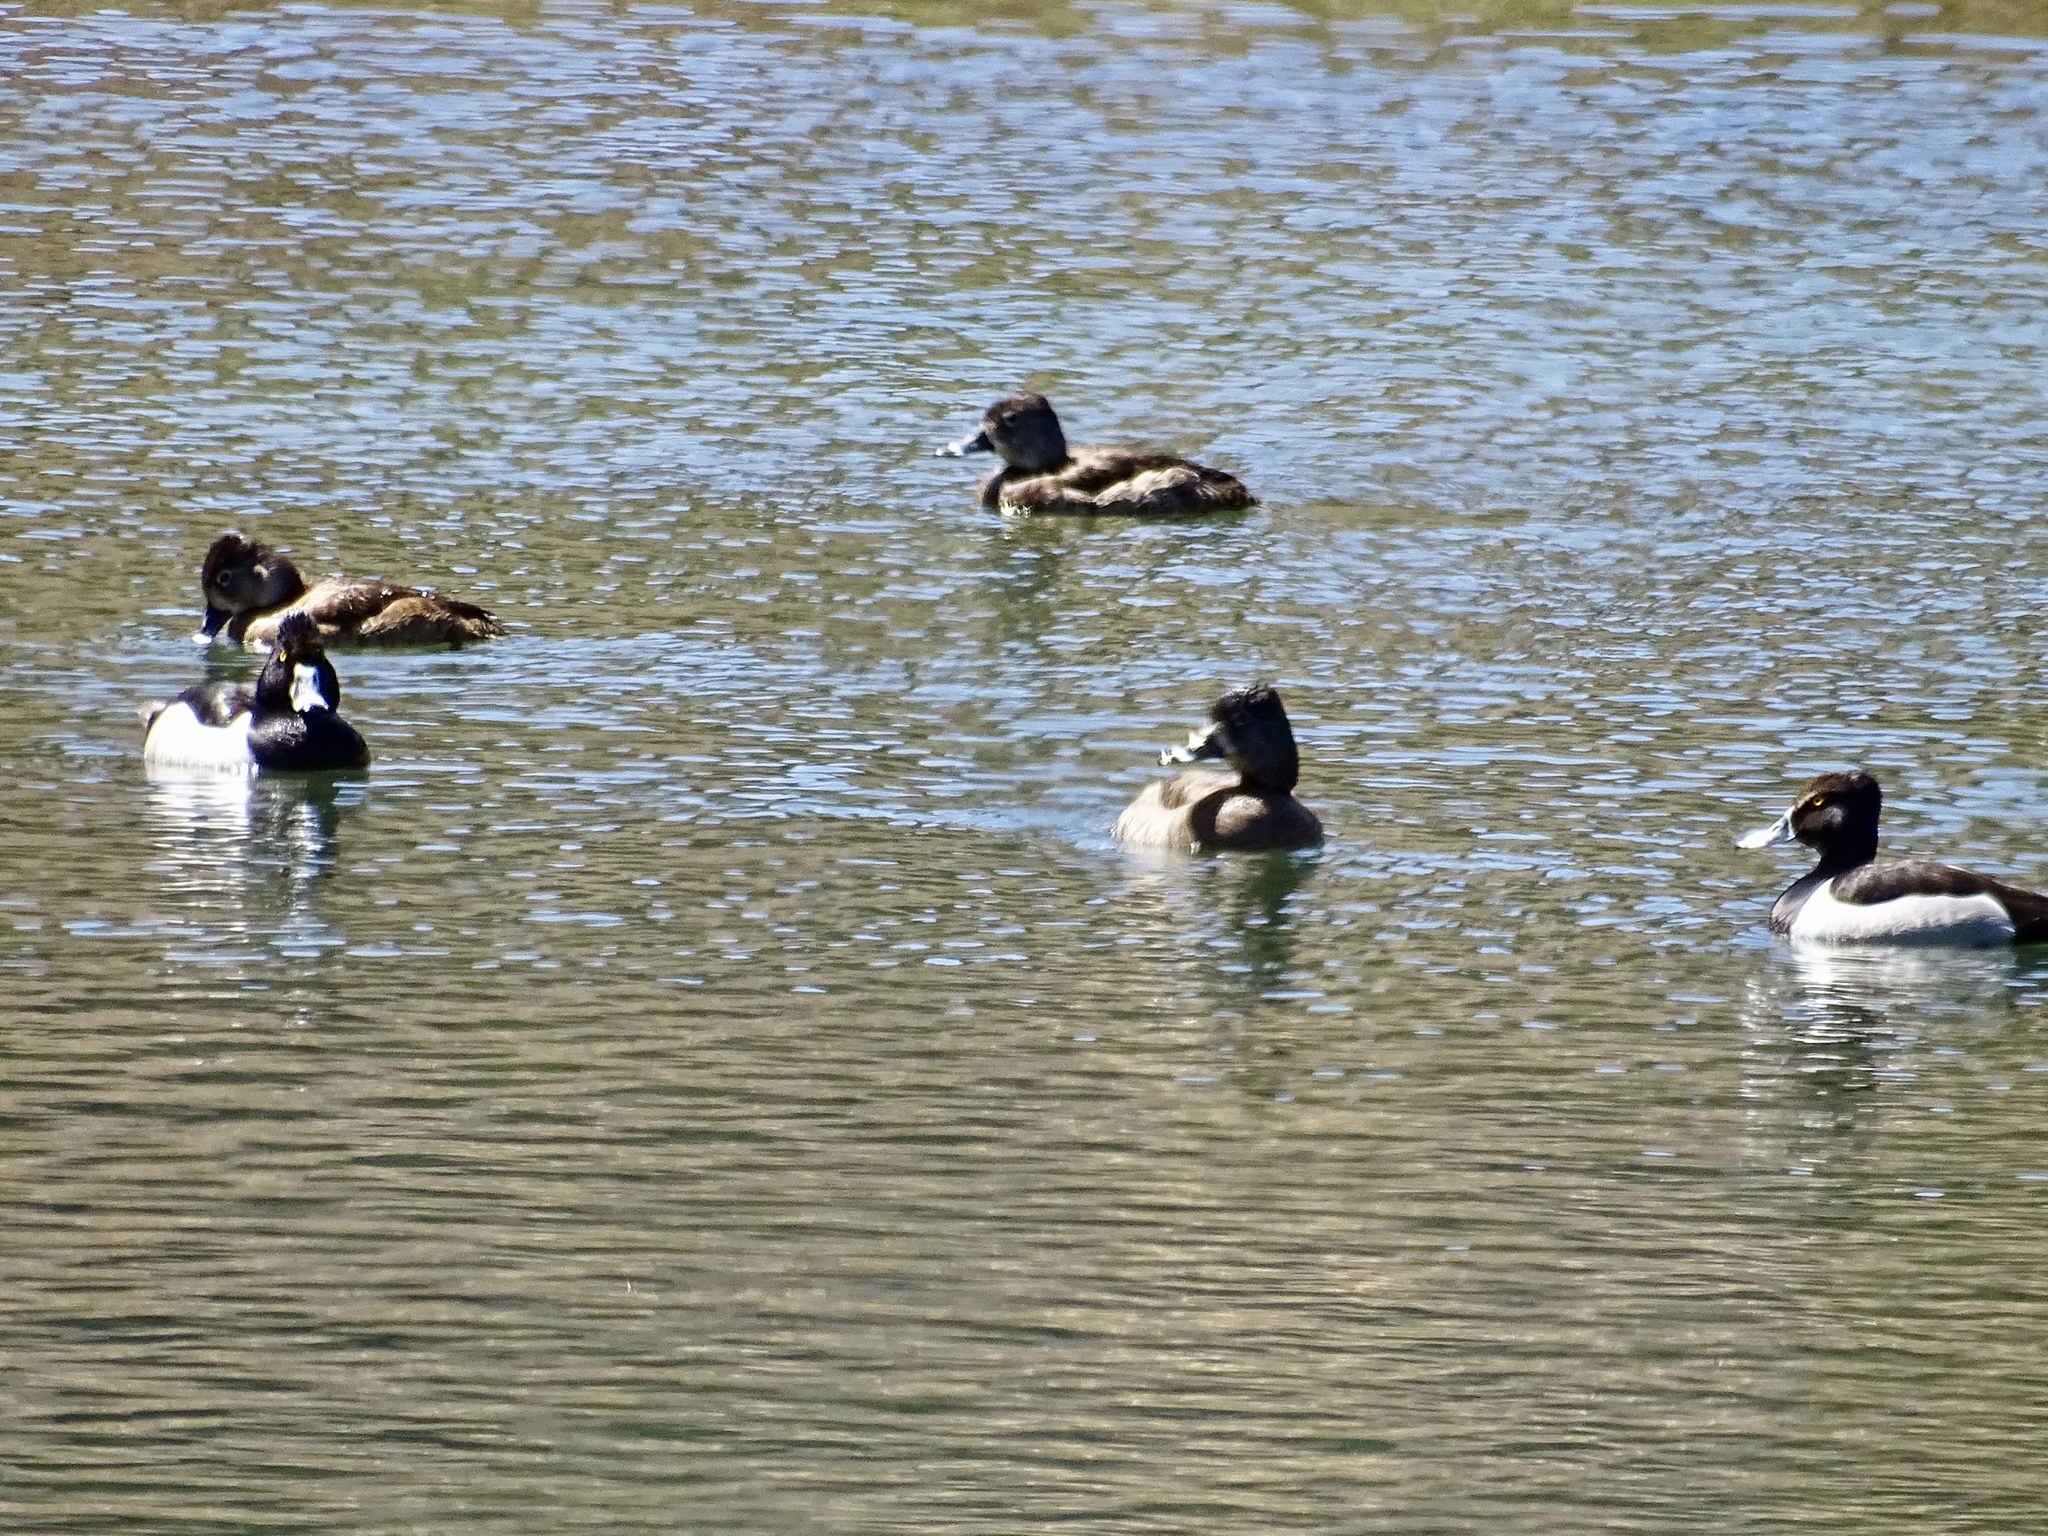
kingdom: Animalia
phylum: Chordata
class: Aves
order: Anseriformes
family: Anatidae
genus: Aythya
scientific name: Aythya collaris
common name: Ring-necked duck
